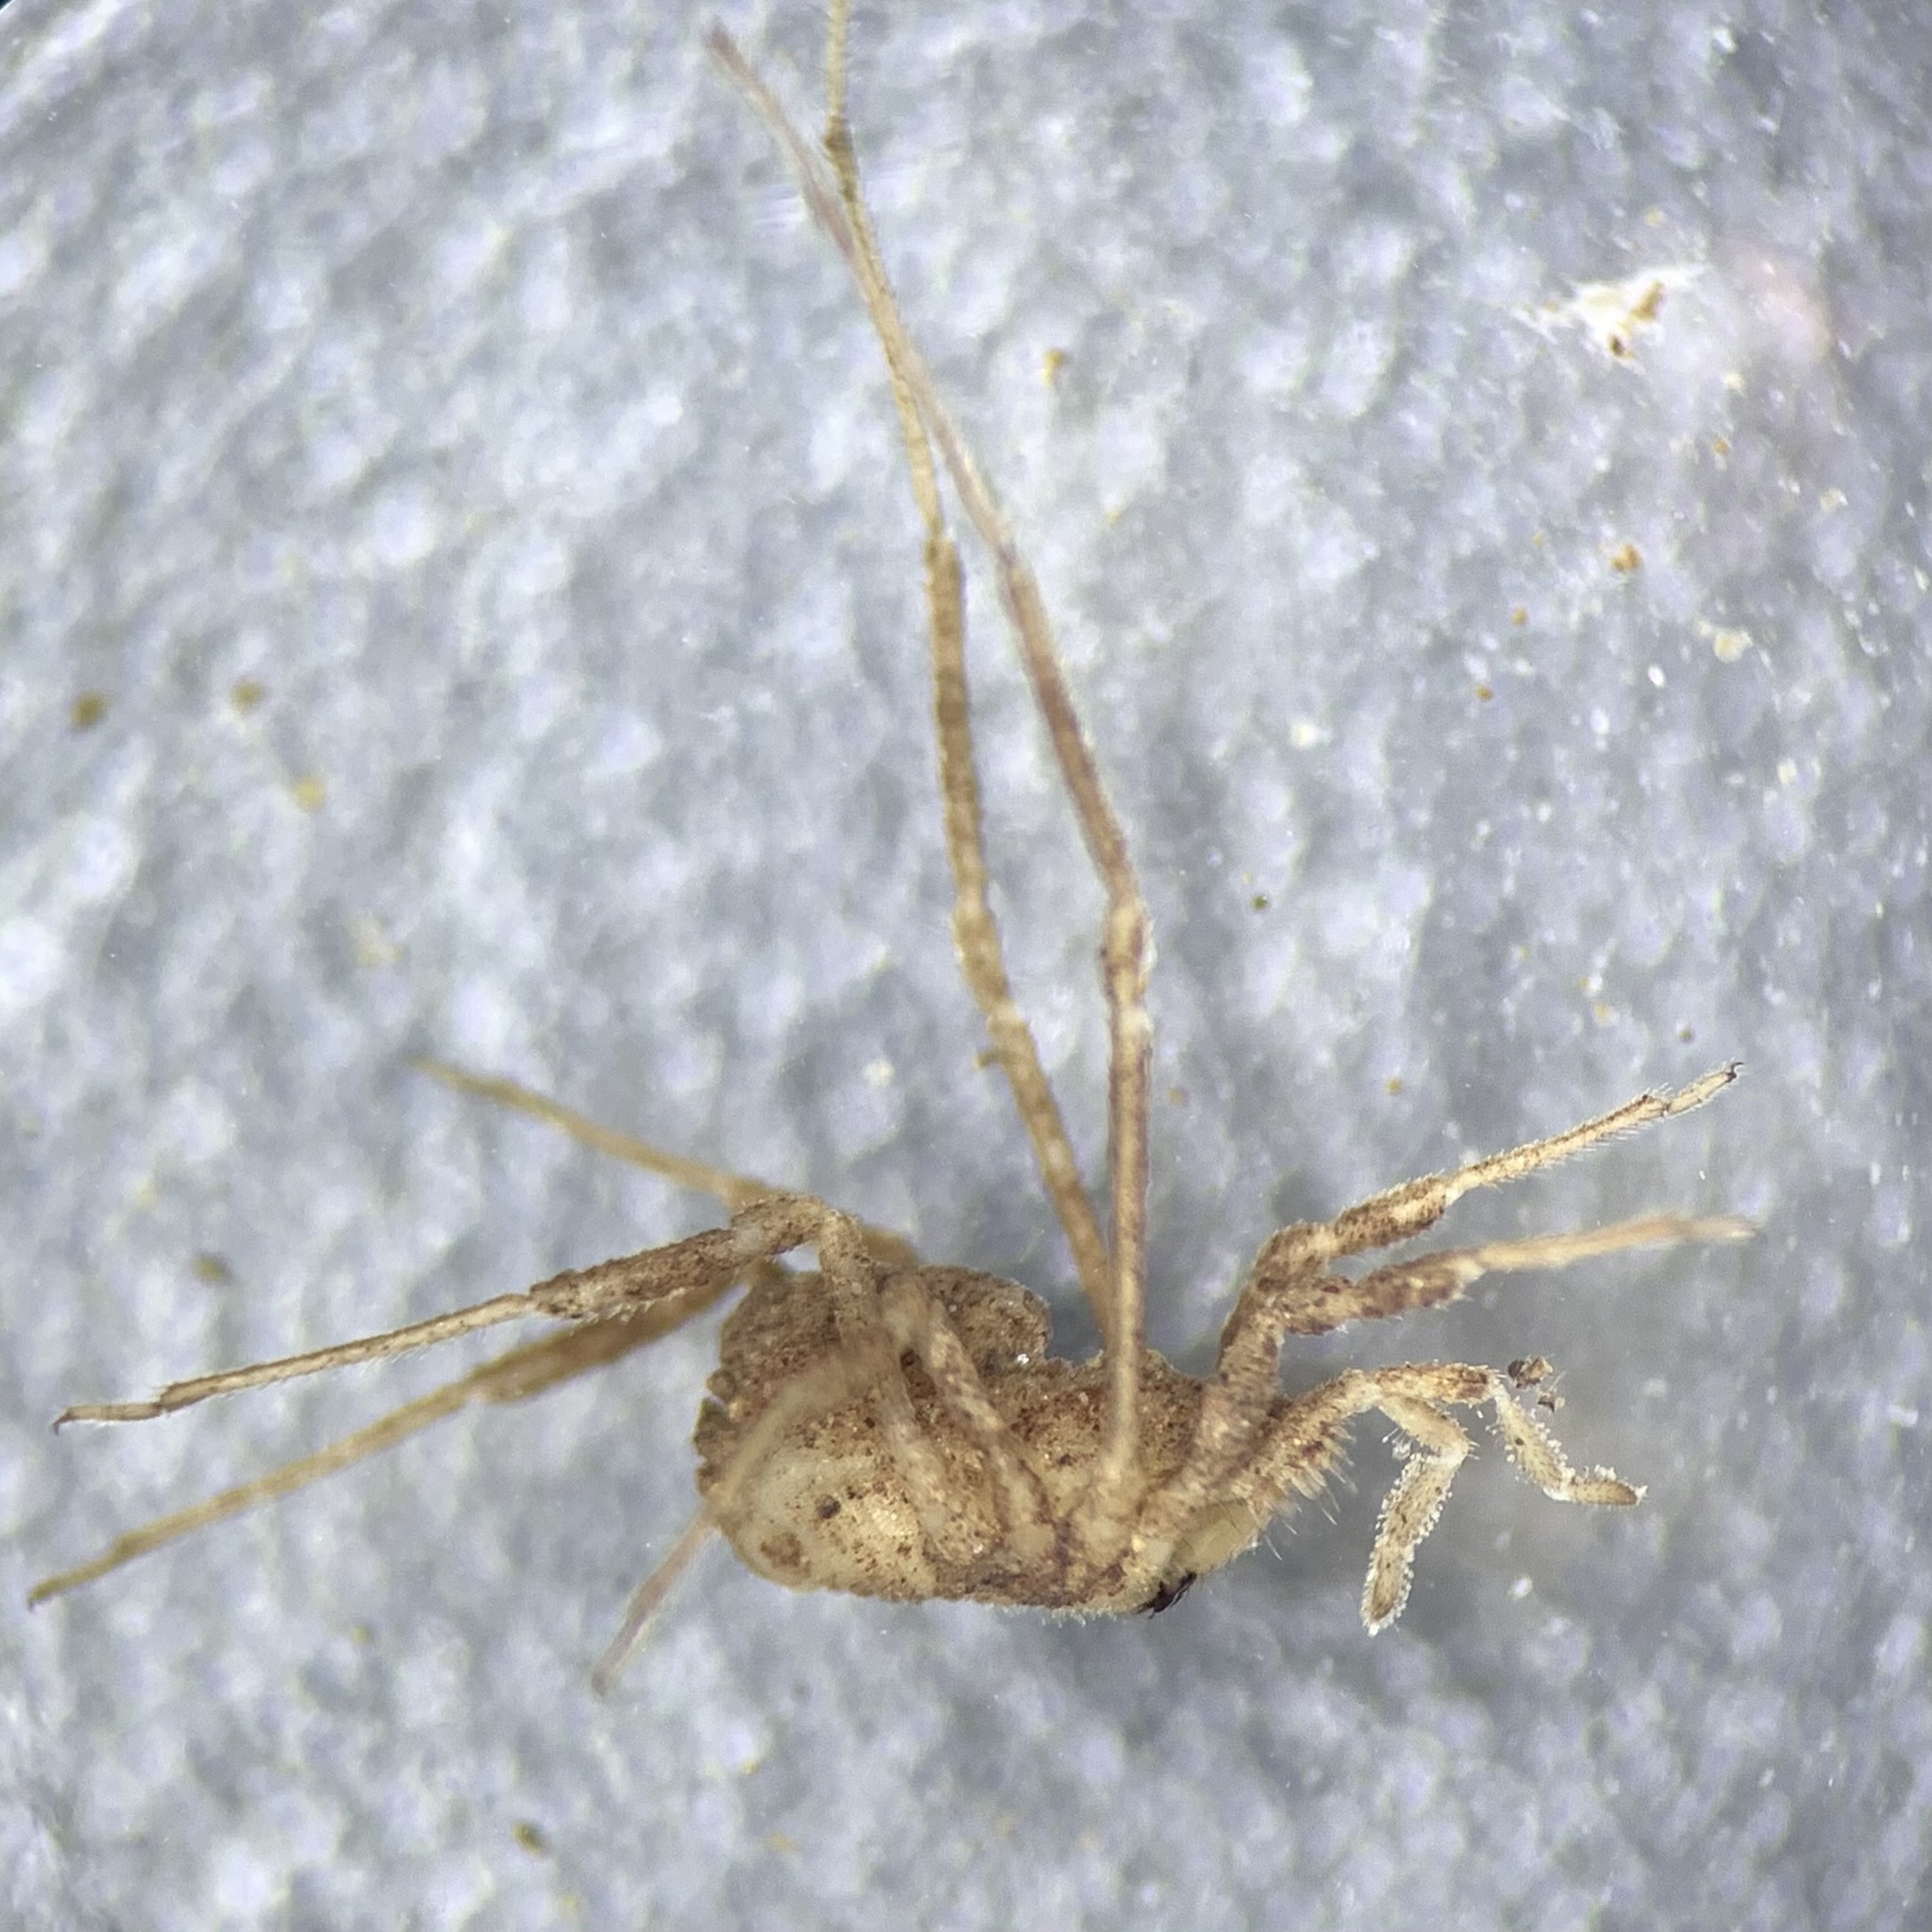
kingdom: Animalia
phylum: Arthropoda
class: Arachnida
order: Opiliones
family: Dicranolasmatidae
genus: Dicranolasma
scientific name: Dicranolasma soerensenii
